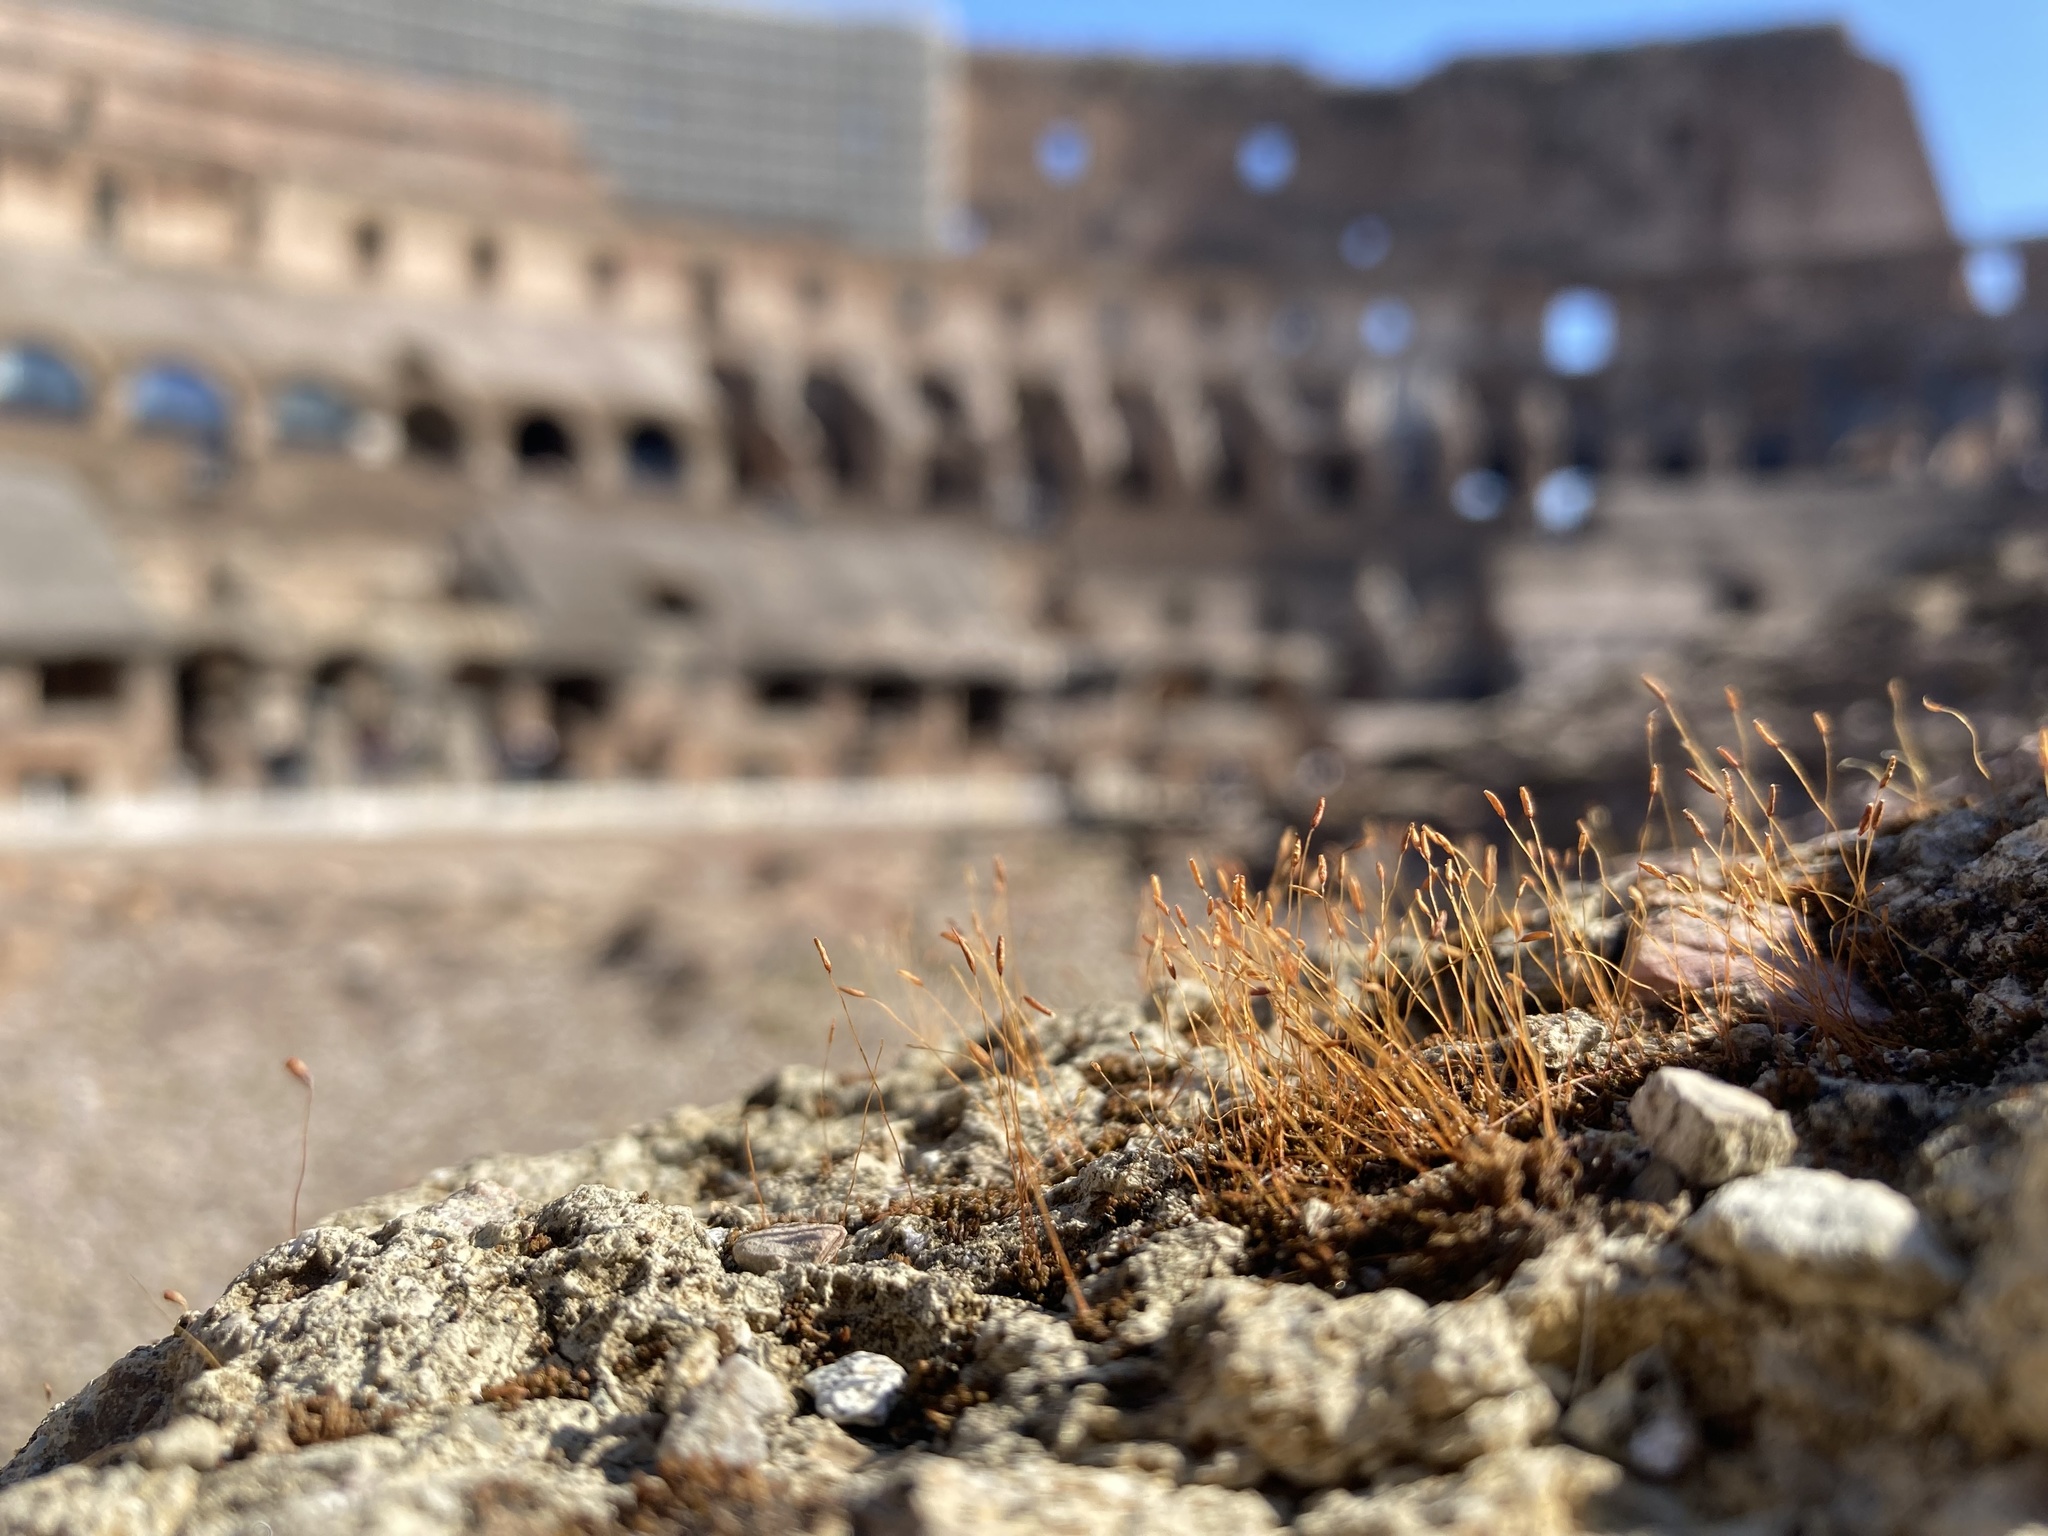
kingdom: Plantae
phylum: Bryophyta
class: Bryopsida
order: Pottiales
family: Pottiaceae
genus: Tortula
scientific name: Tortula muralis
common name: Wall screw-moss
